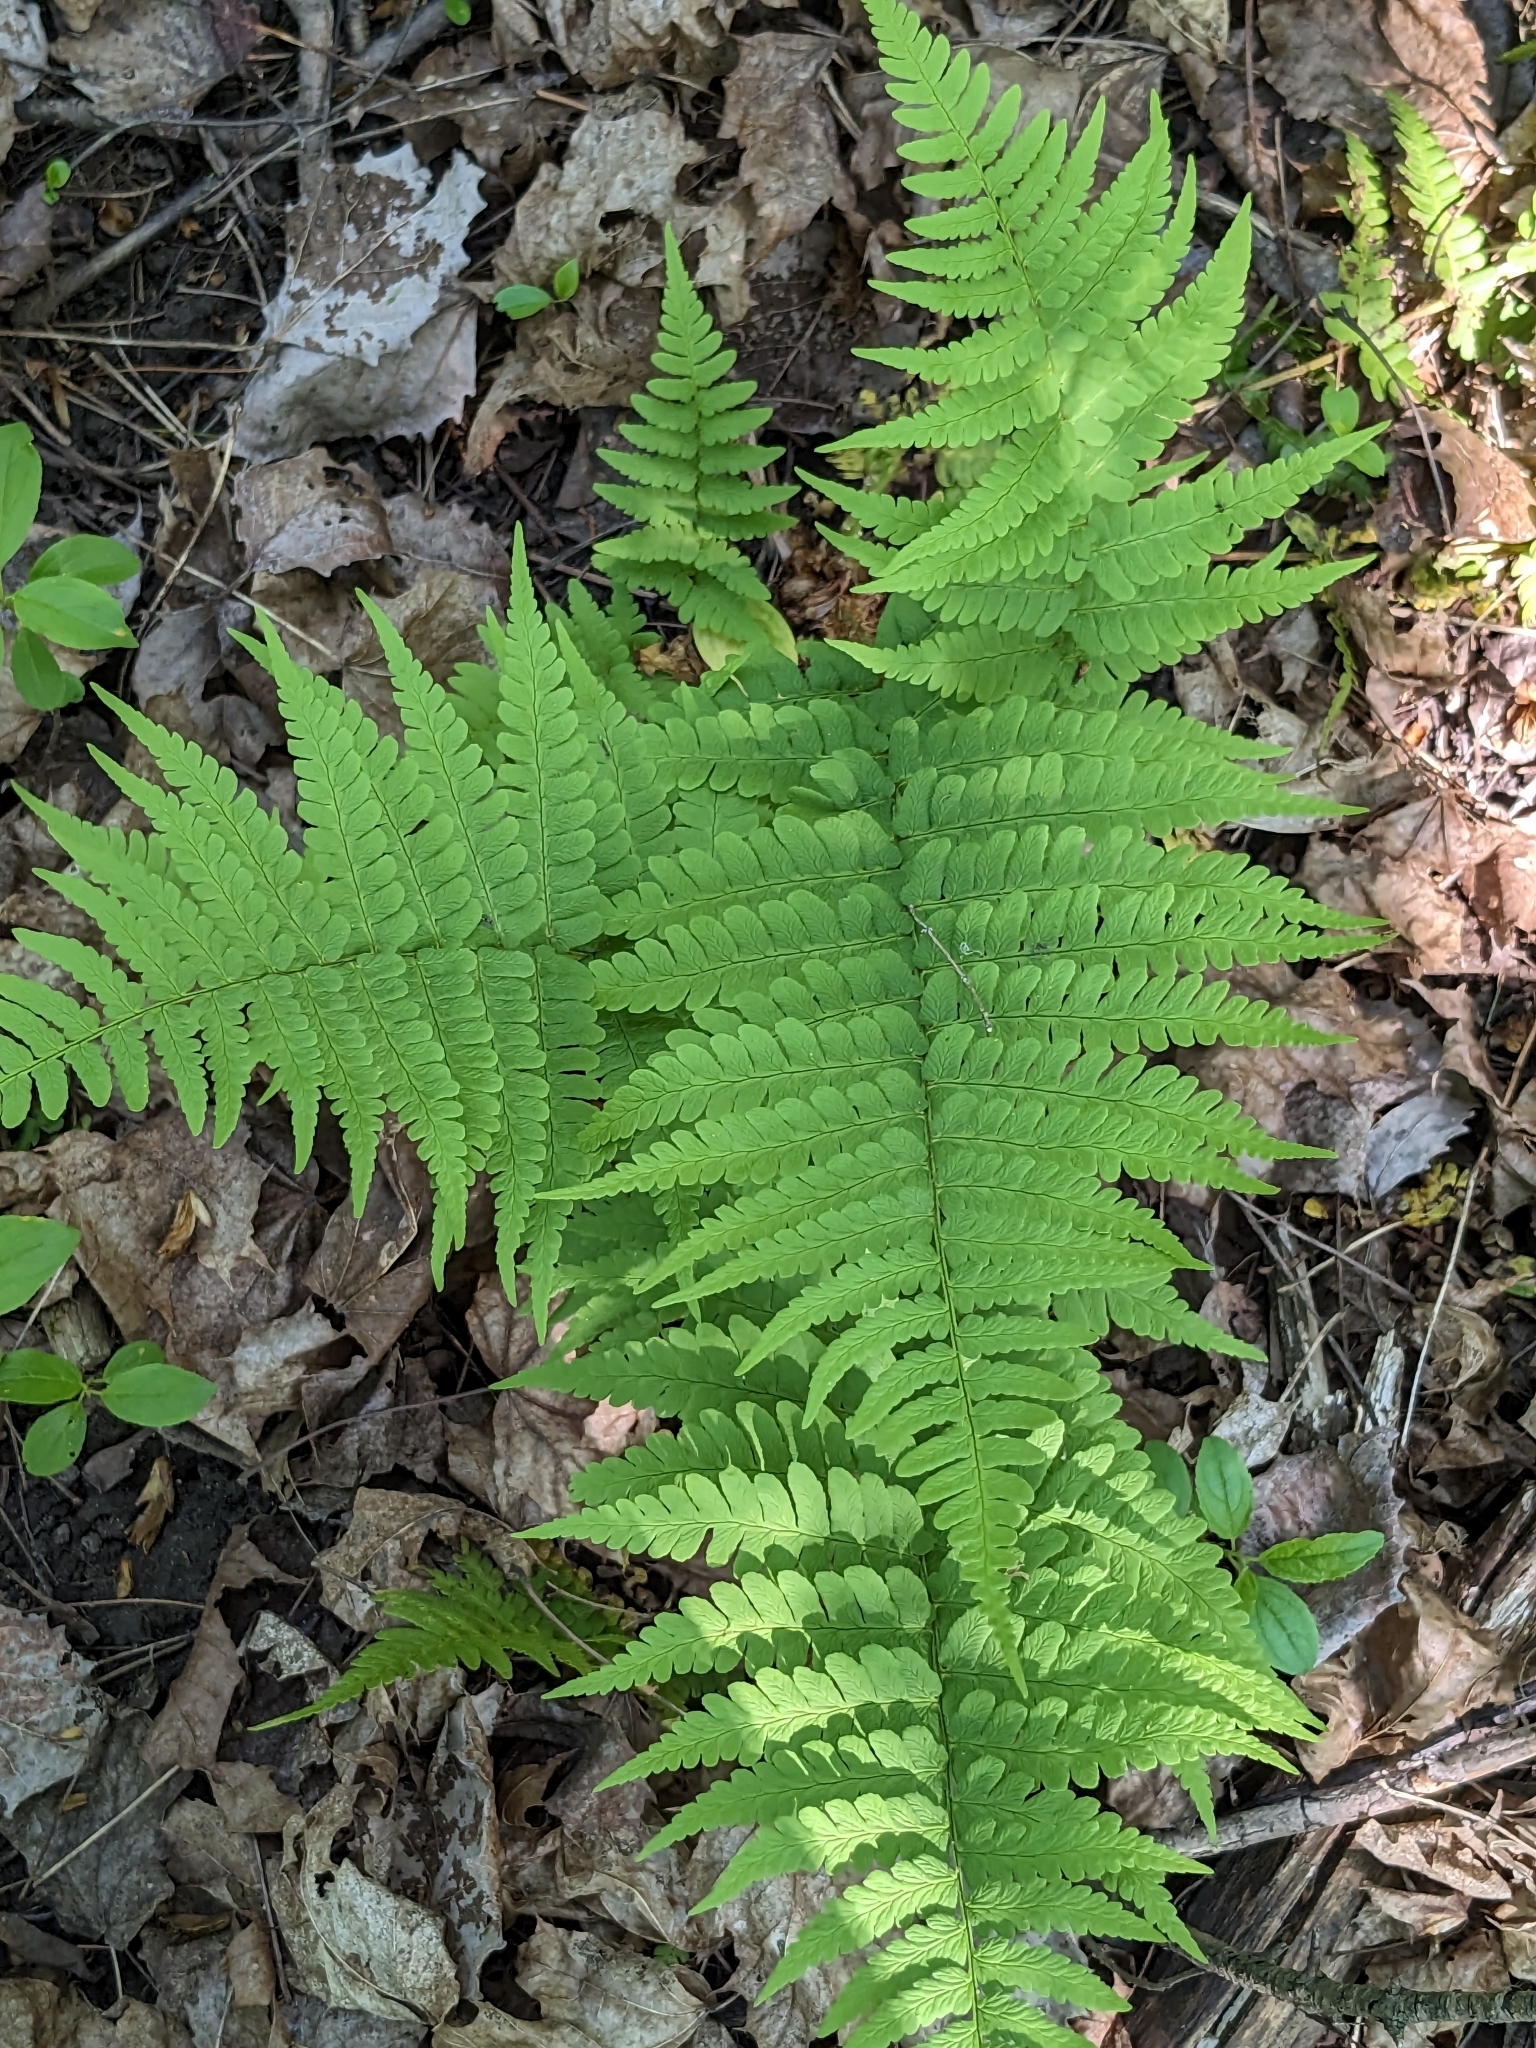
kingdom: Plantae
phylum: Tracheophyta
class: Polypodiopsida
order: Polypodiales
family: Dryopteridaceae
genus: Dryopteris
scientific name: Dryopteris marginalis
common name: Marginal wood fern
